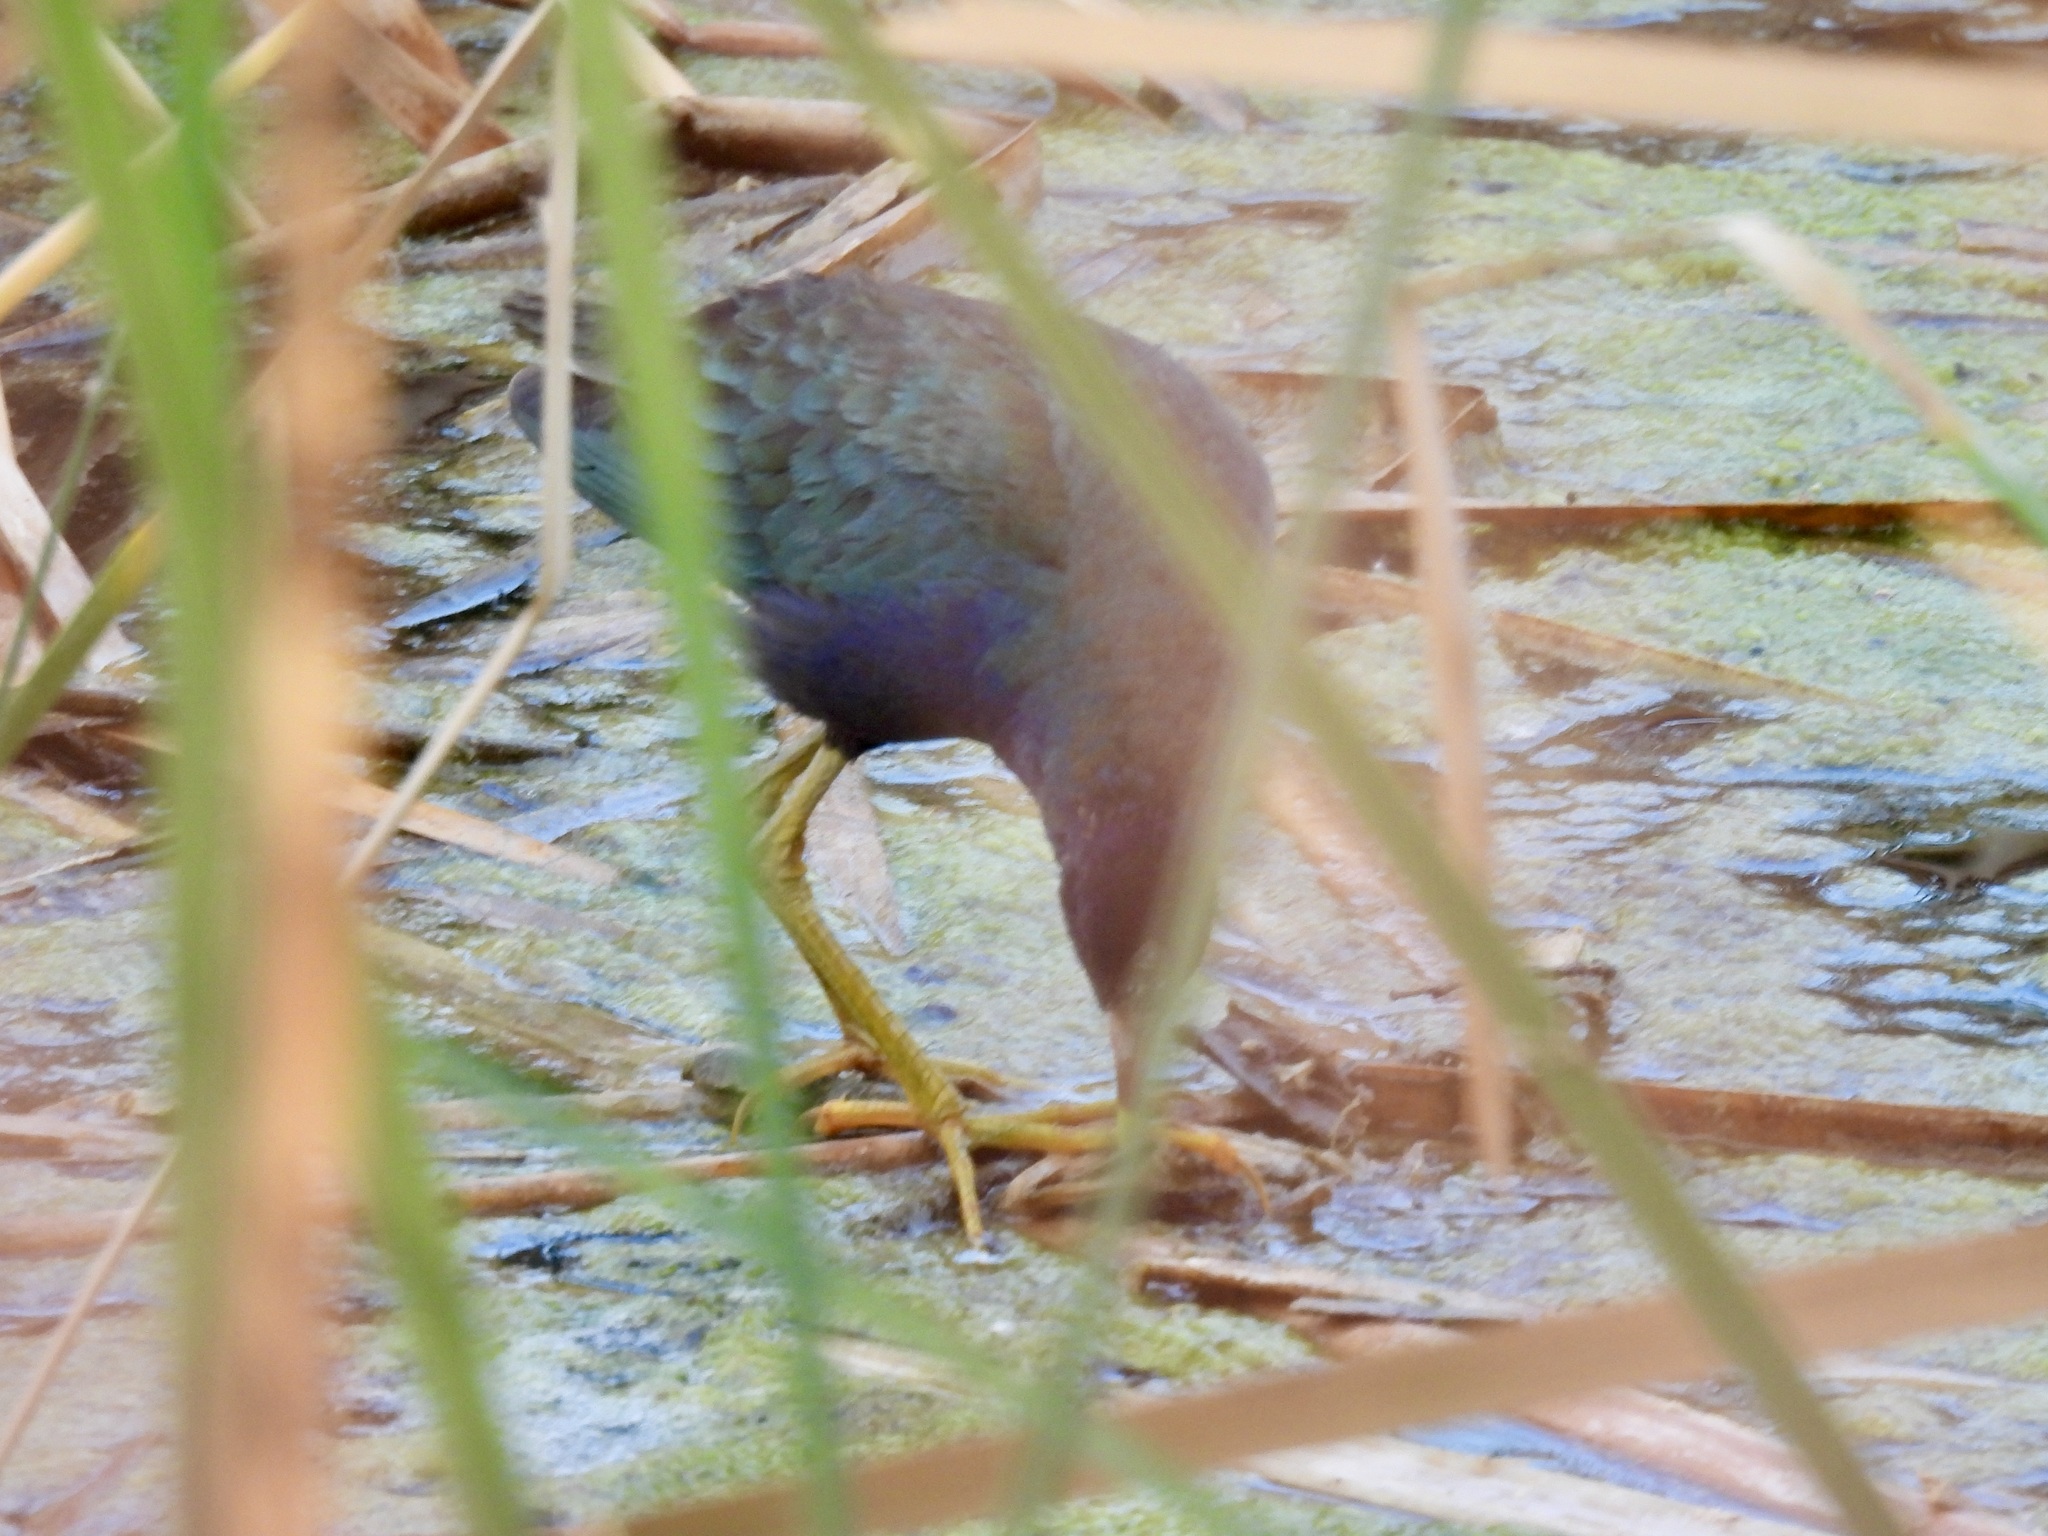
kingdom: Animalia
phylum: Chordata
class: Aves
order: Gruiformes
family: Rallidae
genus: Porphyrio
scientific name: Porphyrio martinica
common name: Purple gallinule
